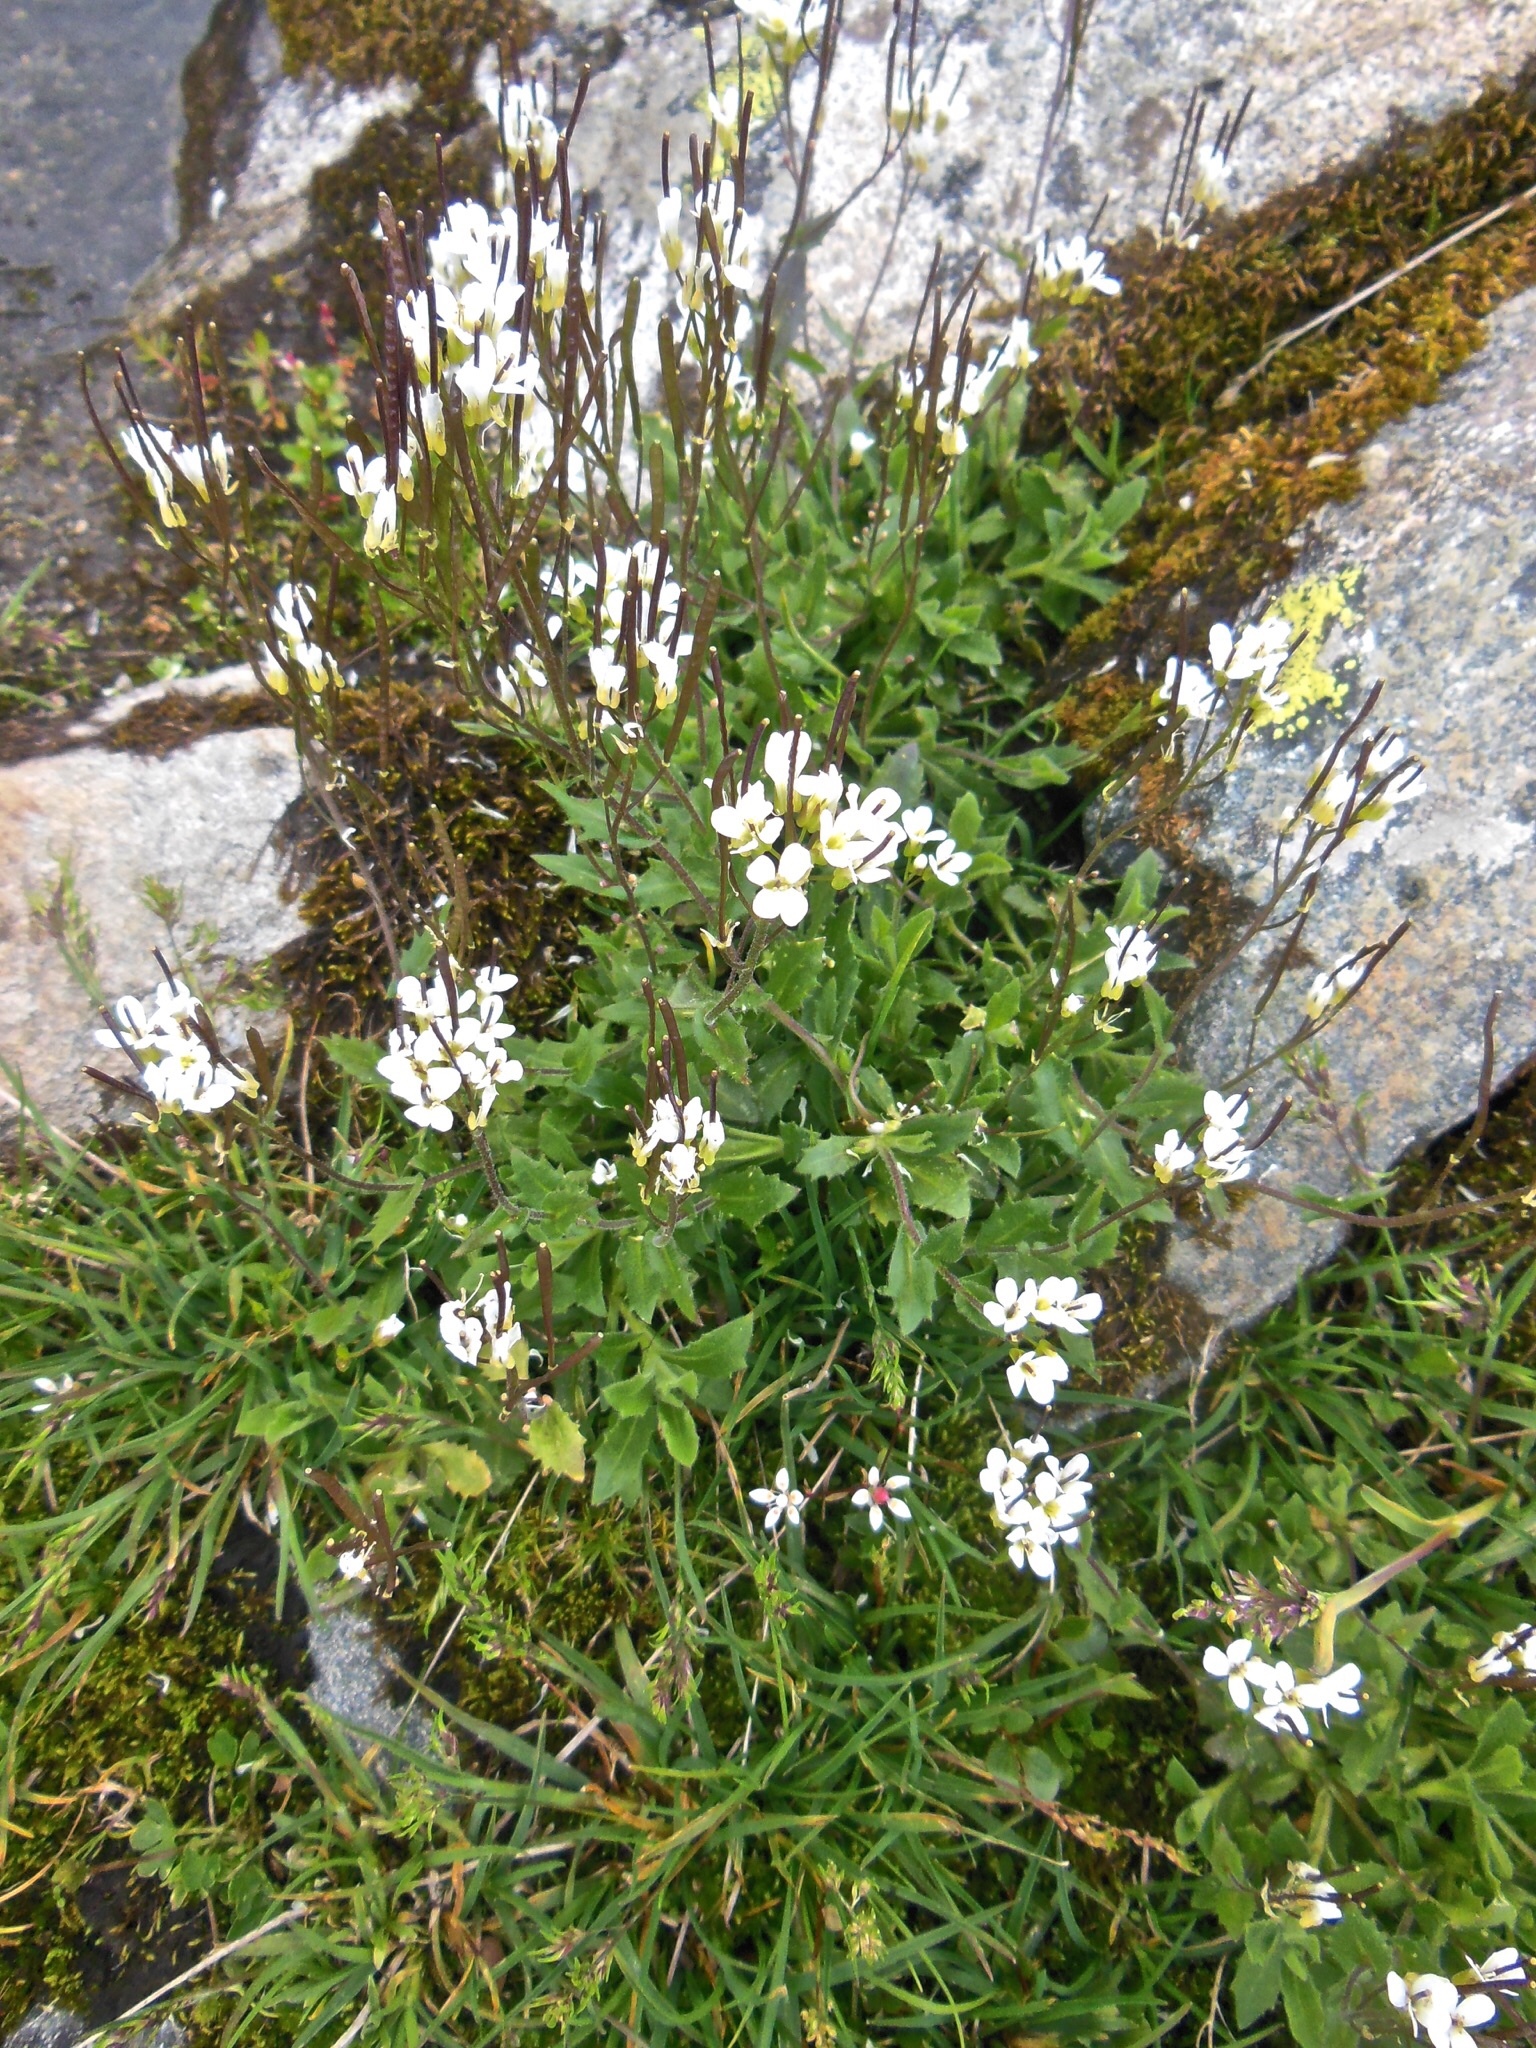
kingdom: Plantae
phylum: Tracheophyta
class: Magnoliopsida
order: Brassicales
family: Brassicaceae
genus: Arabis
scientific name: Arabis alpina
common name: Alpine rock-cress
